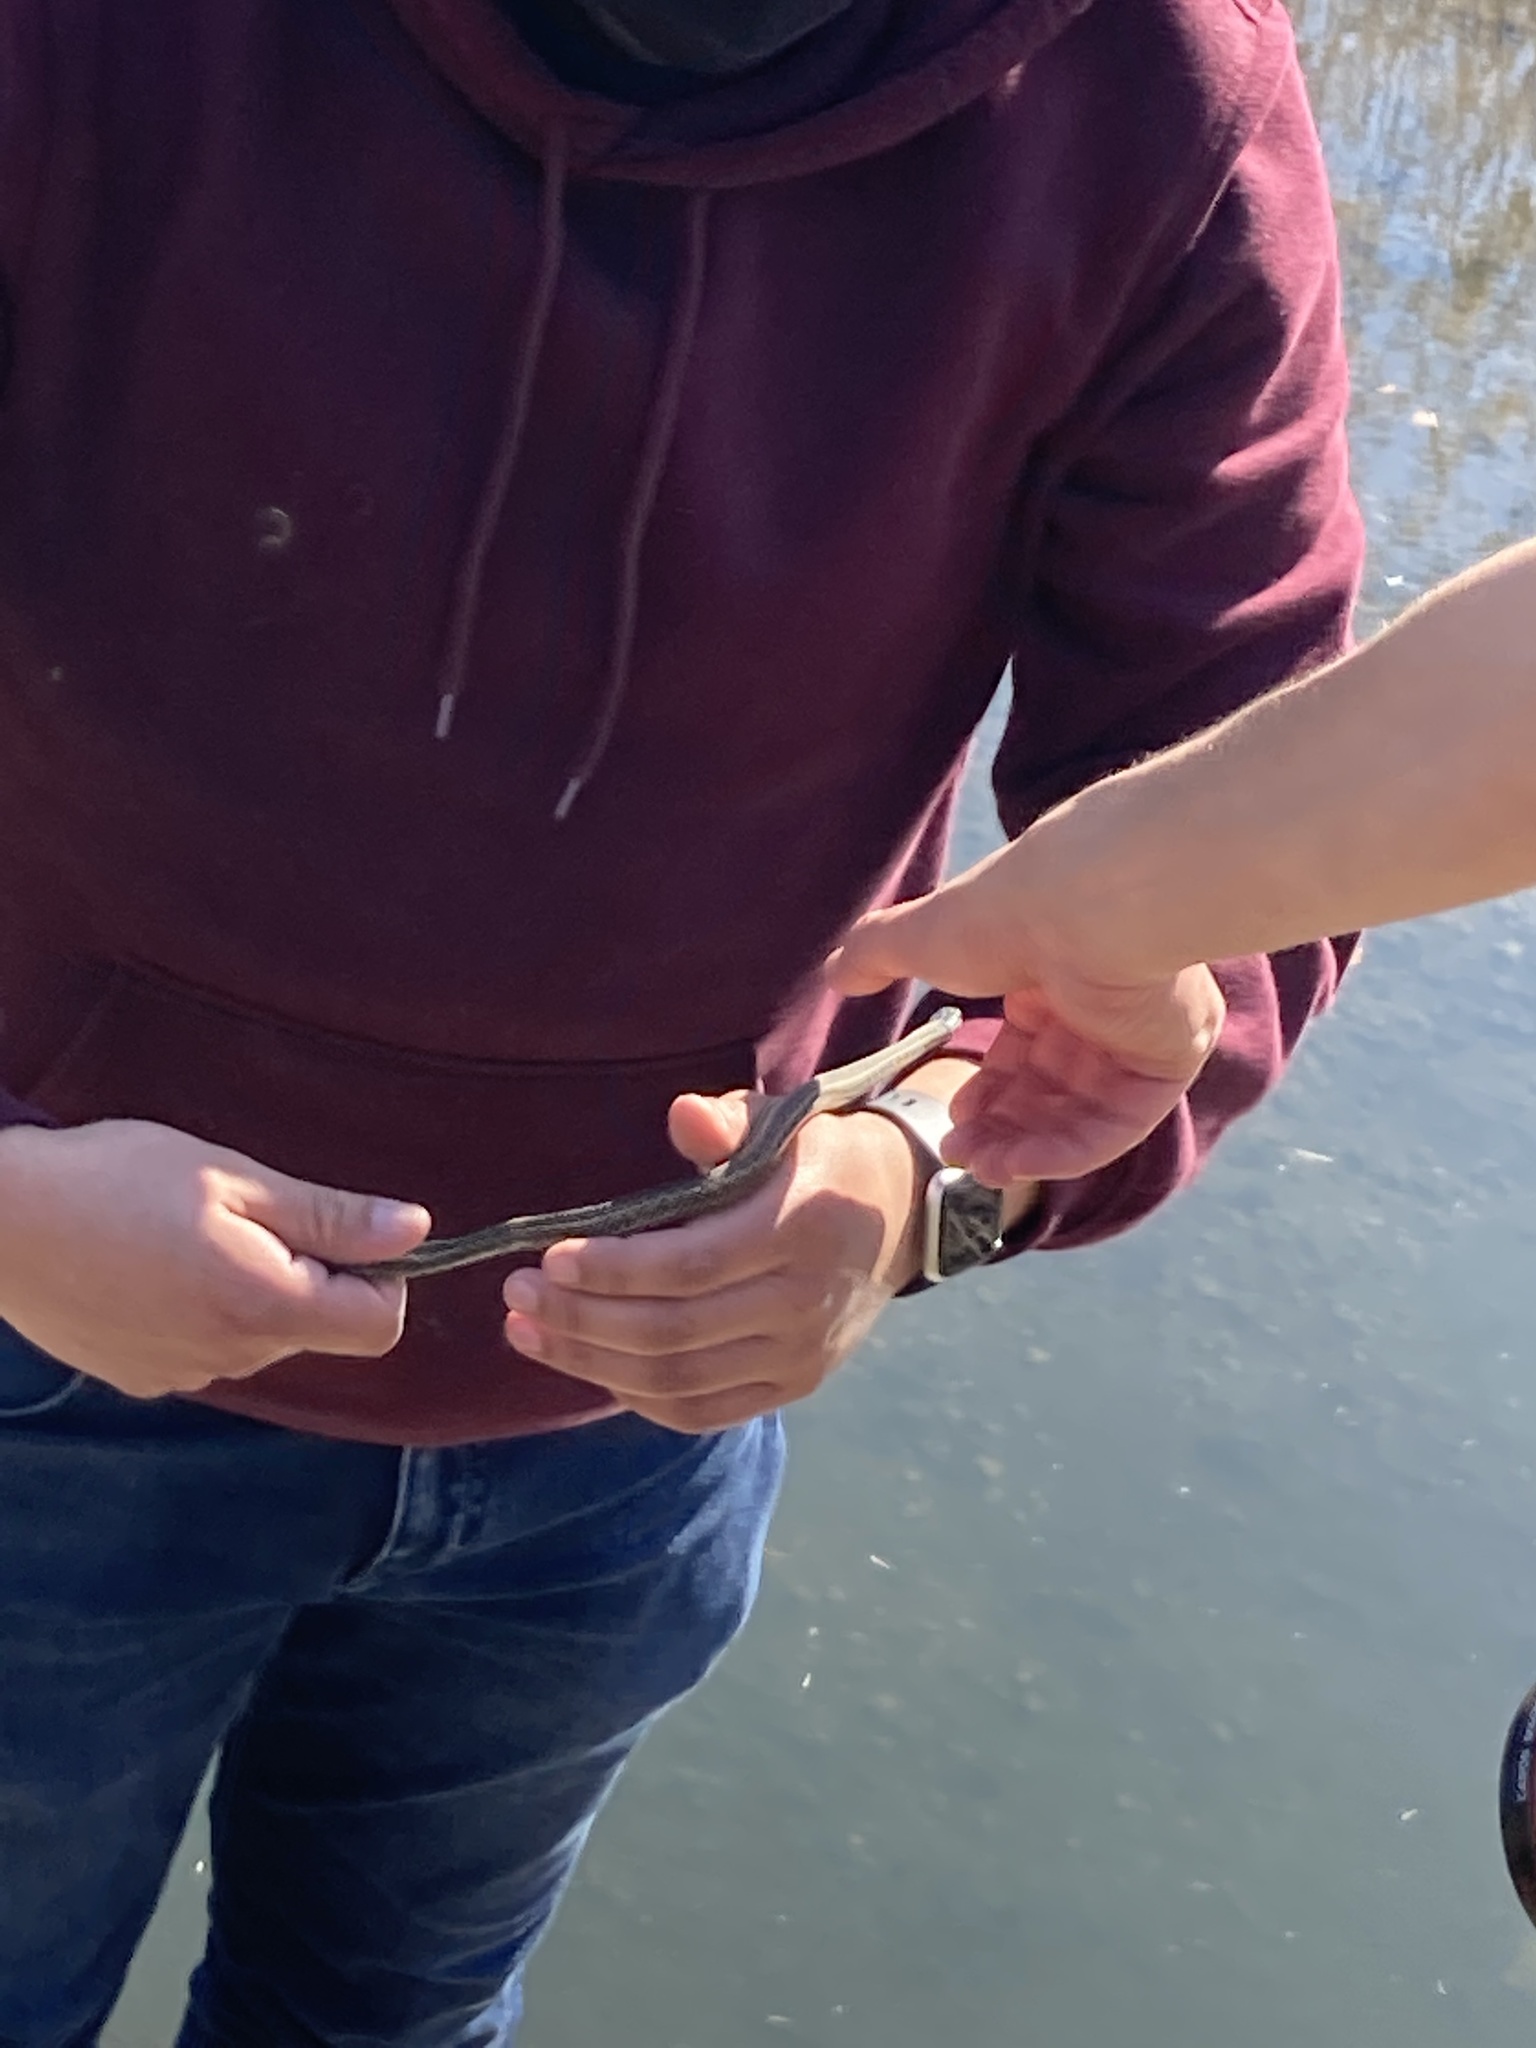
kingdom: Animalia
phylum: Chordata
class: Squamata
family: Colubridae
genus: Thamnophis
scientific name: Thamnophis radix
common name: Plains garter snake
